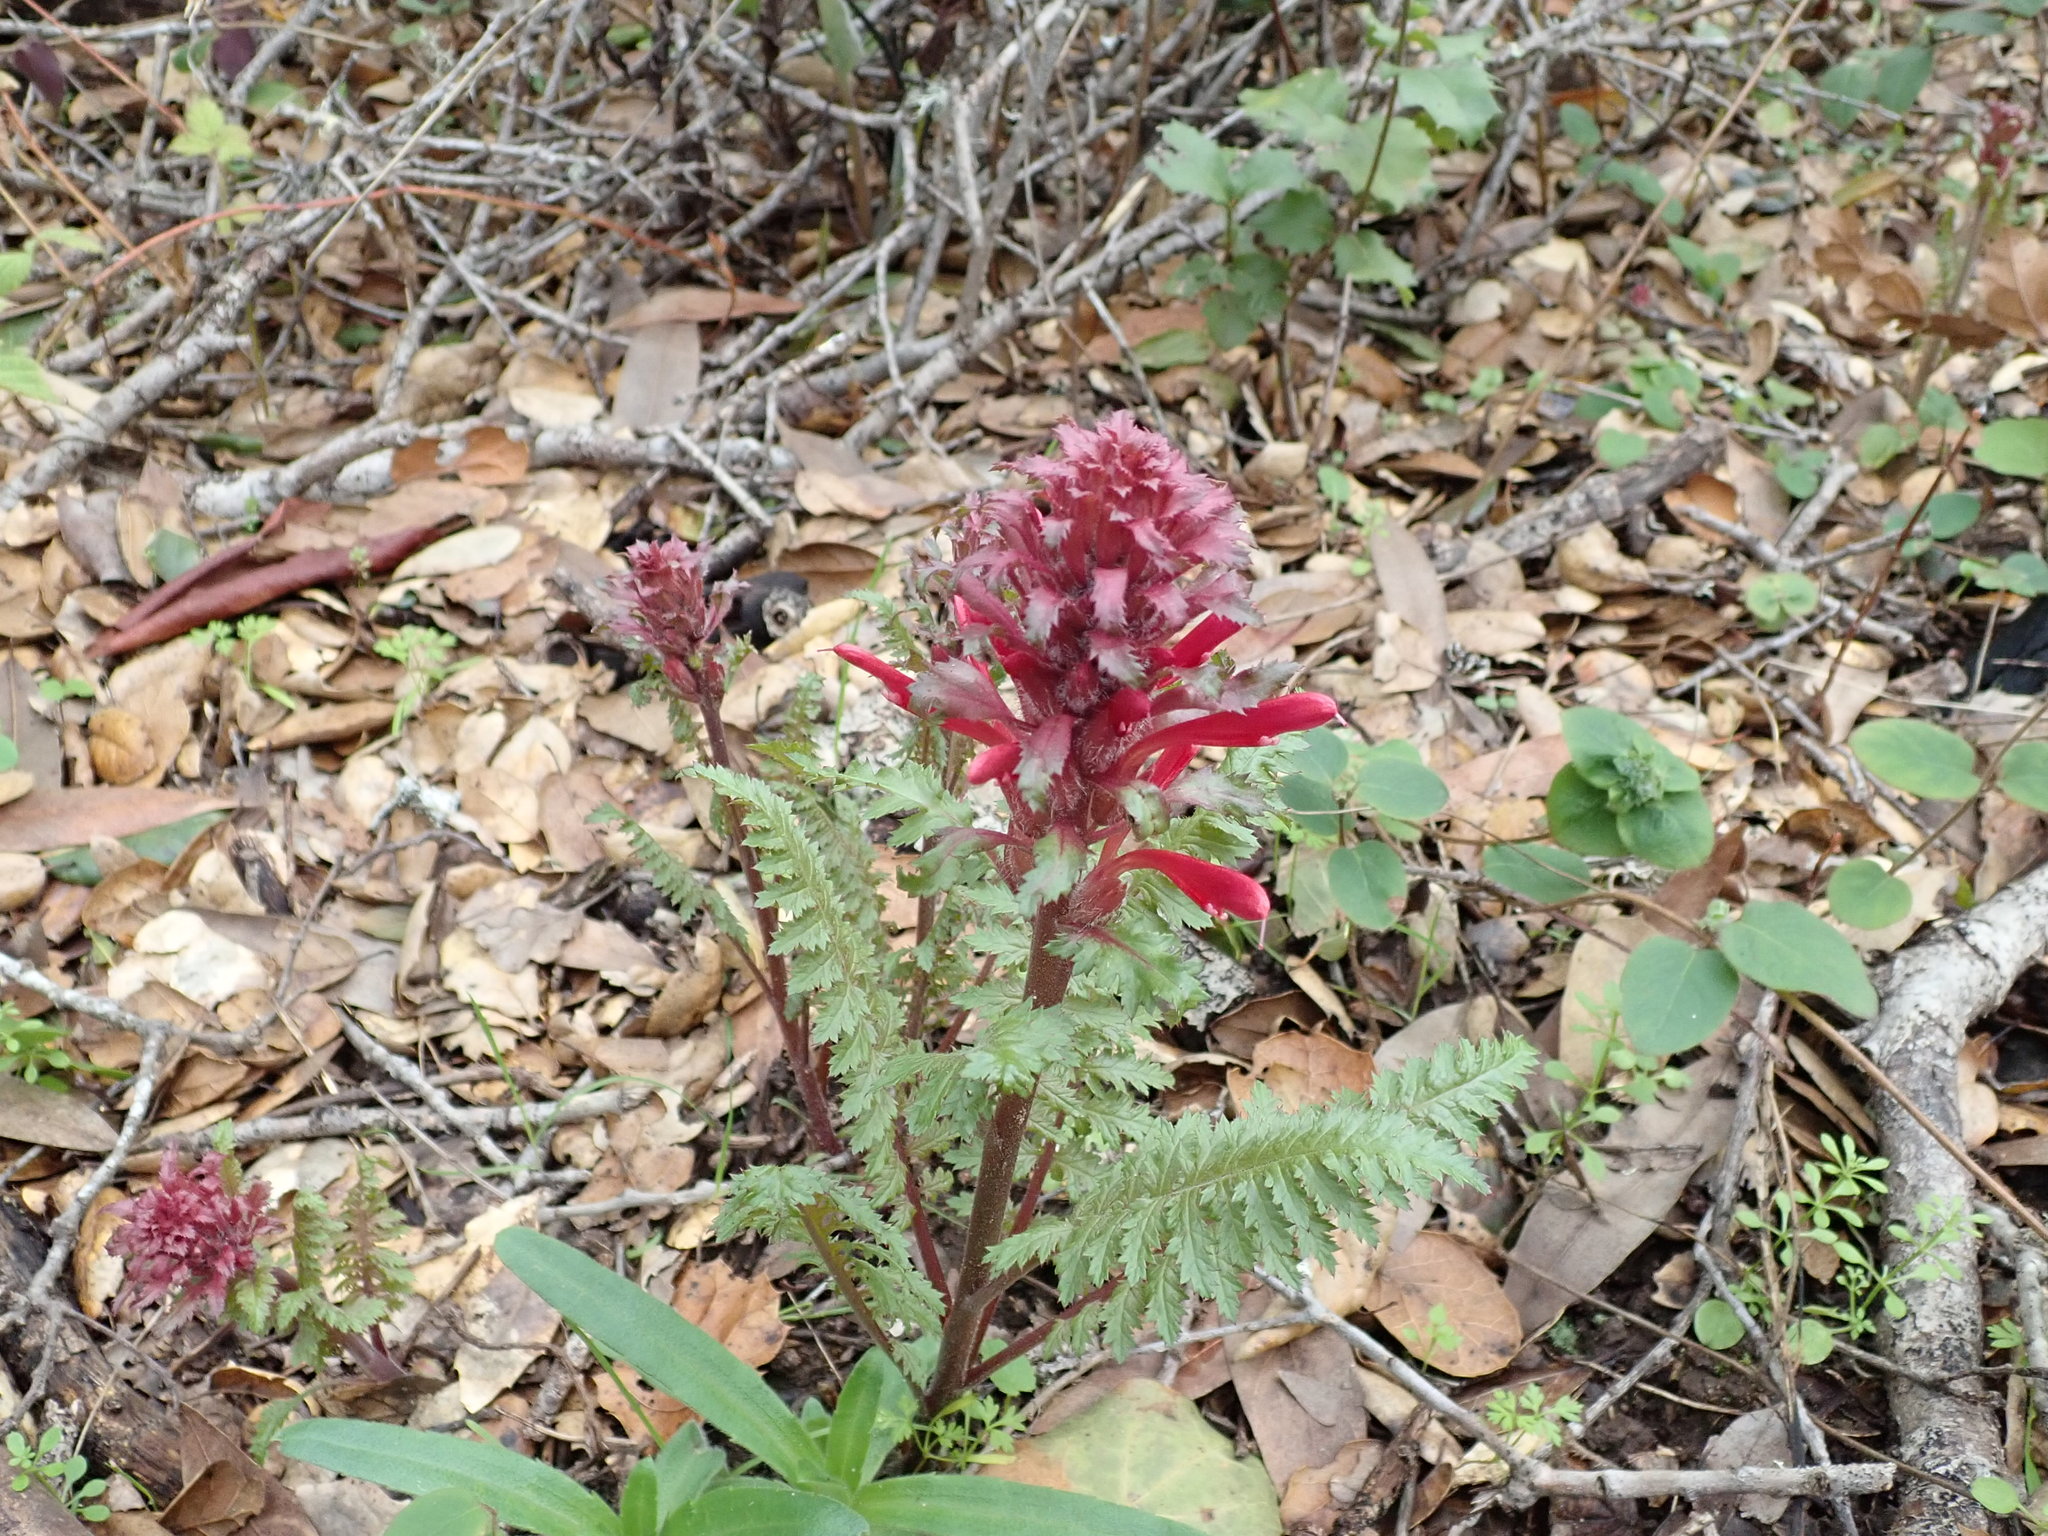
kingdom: Plantae
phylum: Tracheophyta
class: Magnoliopsida
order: Lamiales
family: Orobanchaceae
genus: Pedicularis
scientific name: Pedicularis densiflora
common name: Indian warrior
